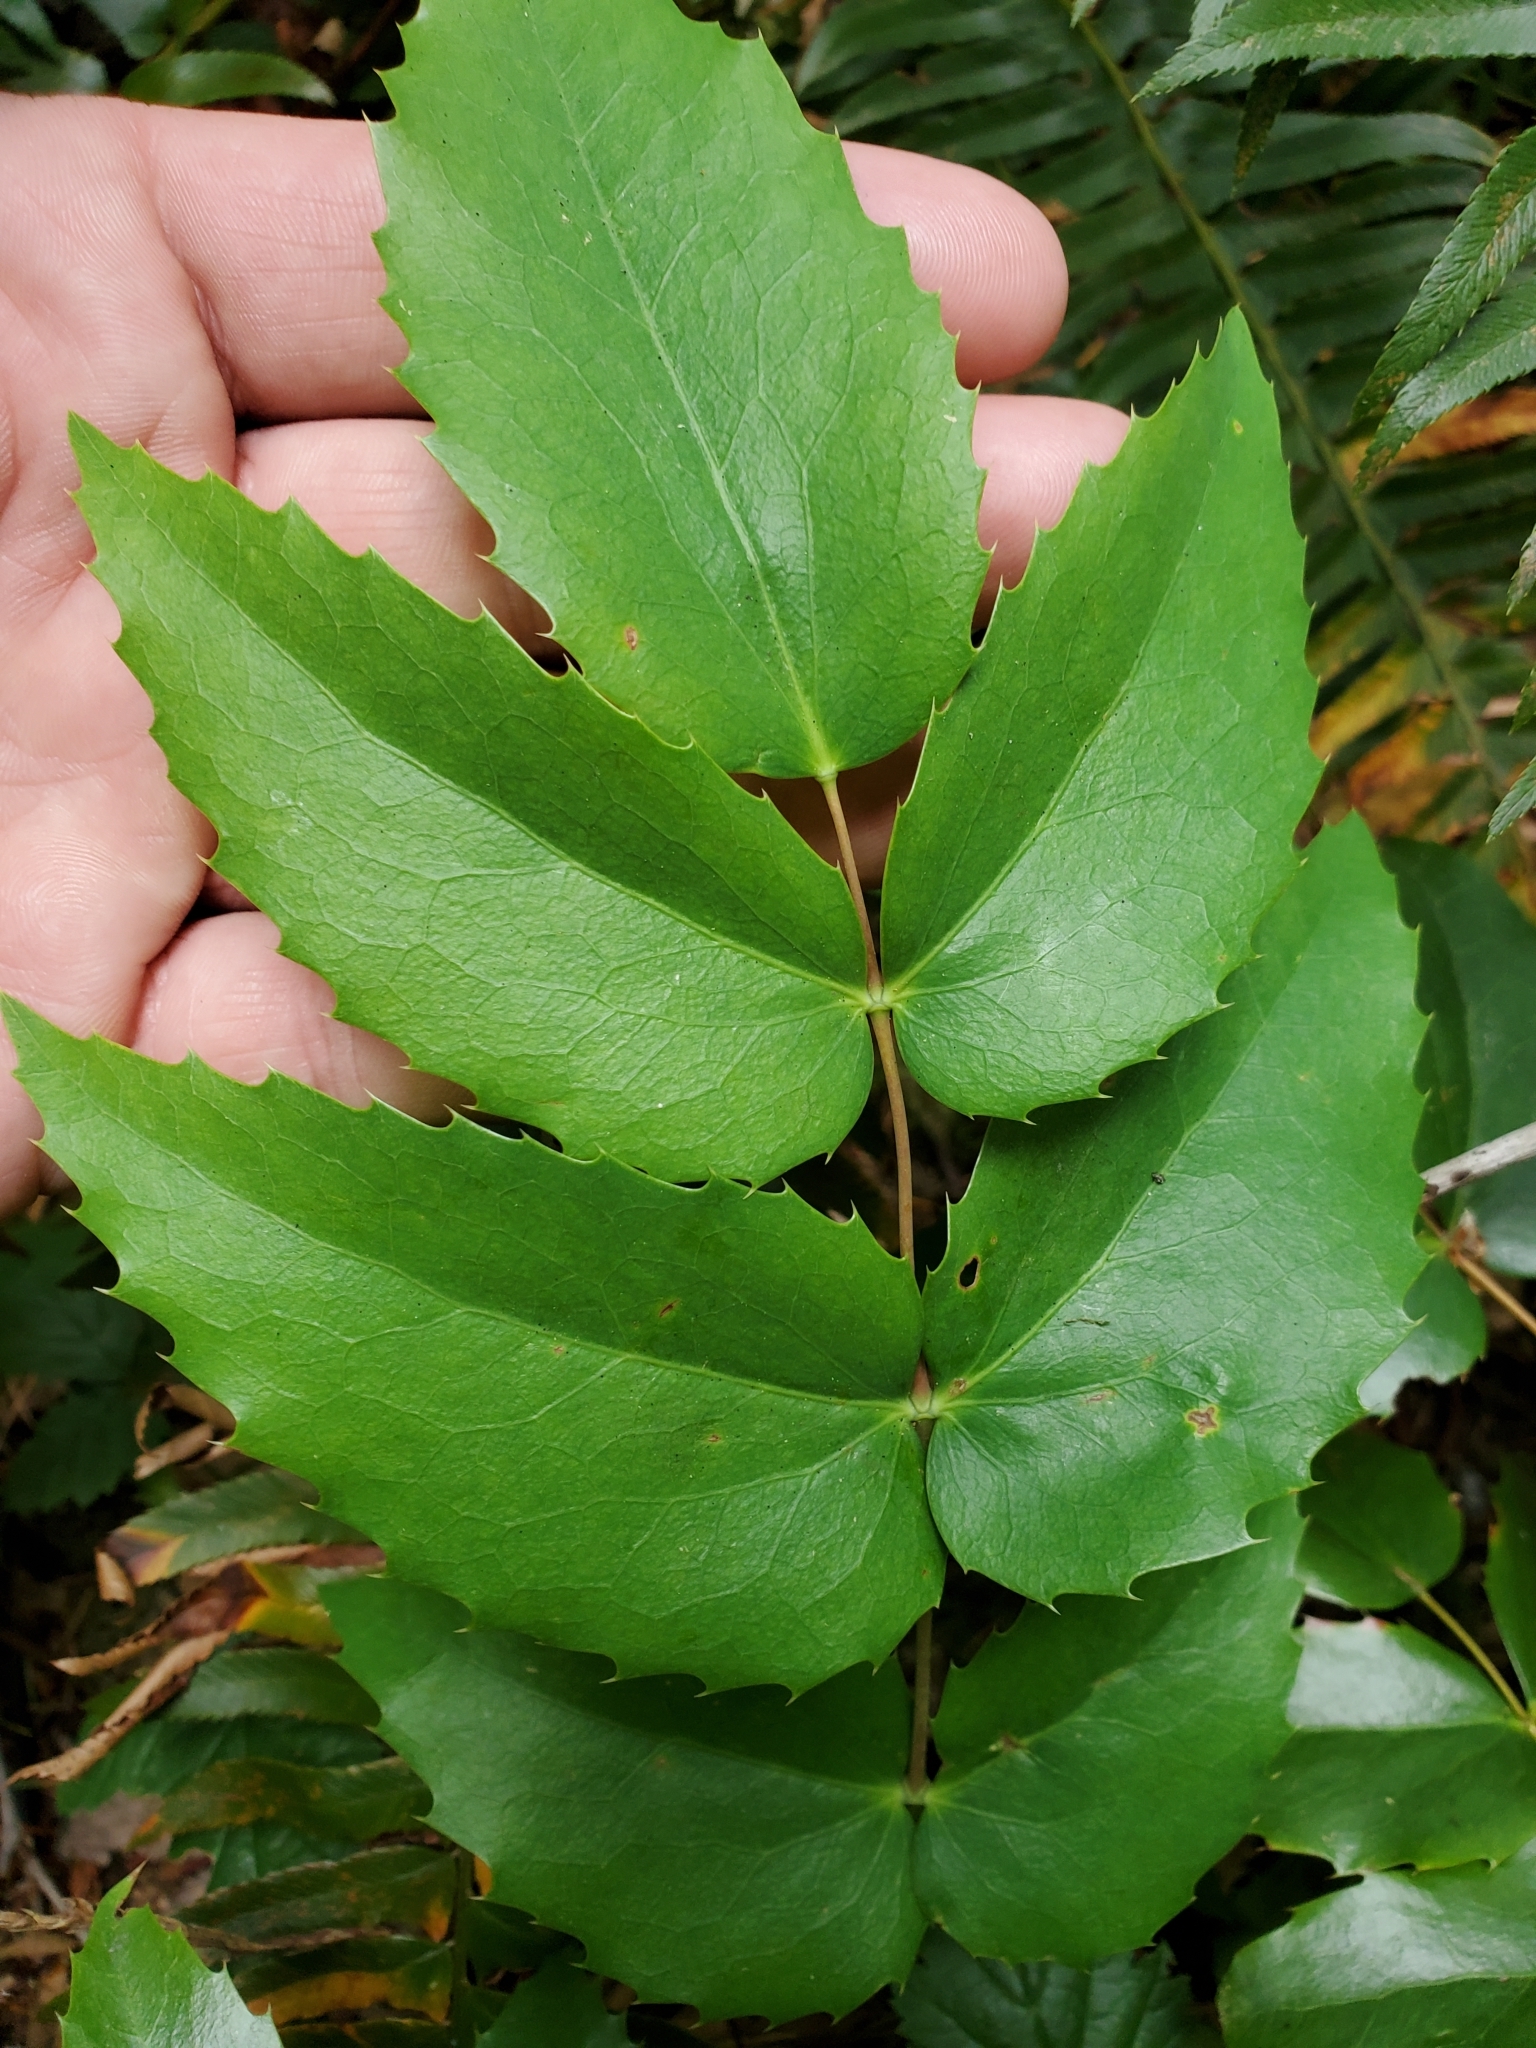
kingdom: Plantae
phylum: Tracheophyta
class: Magnoliopsida
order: Ranunculales
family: Berberidaceae
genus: Mahonia
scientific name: Mahonia nervosa
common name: Cascade oregon-grape
